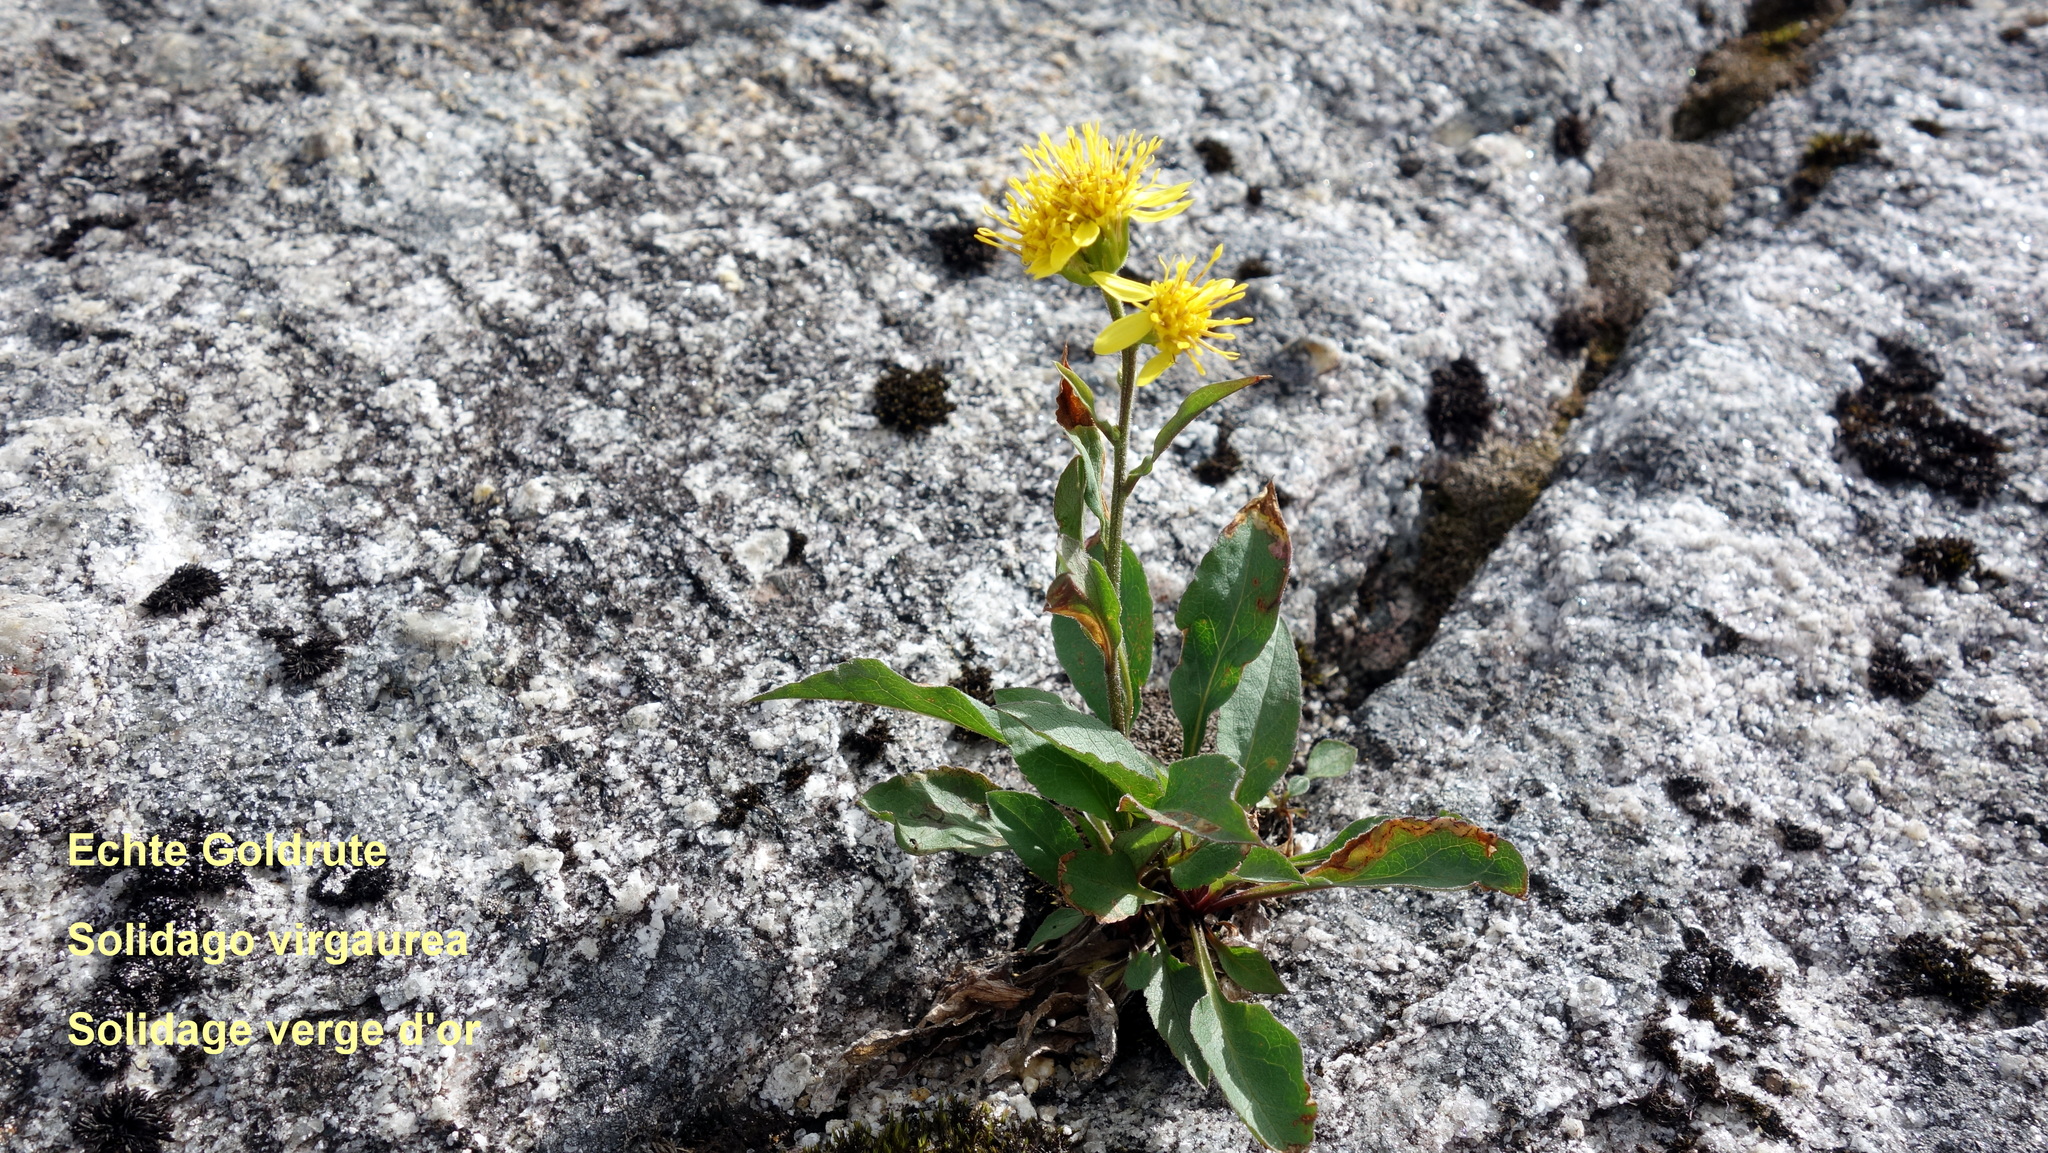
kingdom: Plantae
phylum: Tracheophyta
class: Magnoliopsida
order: Asterales
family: Asteraceae
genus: Solidago
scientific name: Solidago virgaurea
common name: Goldenrod
